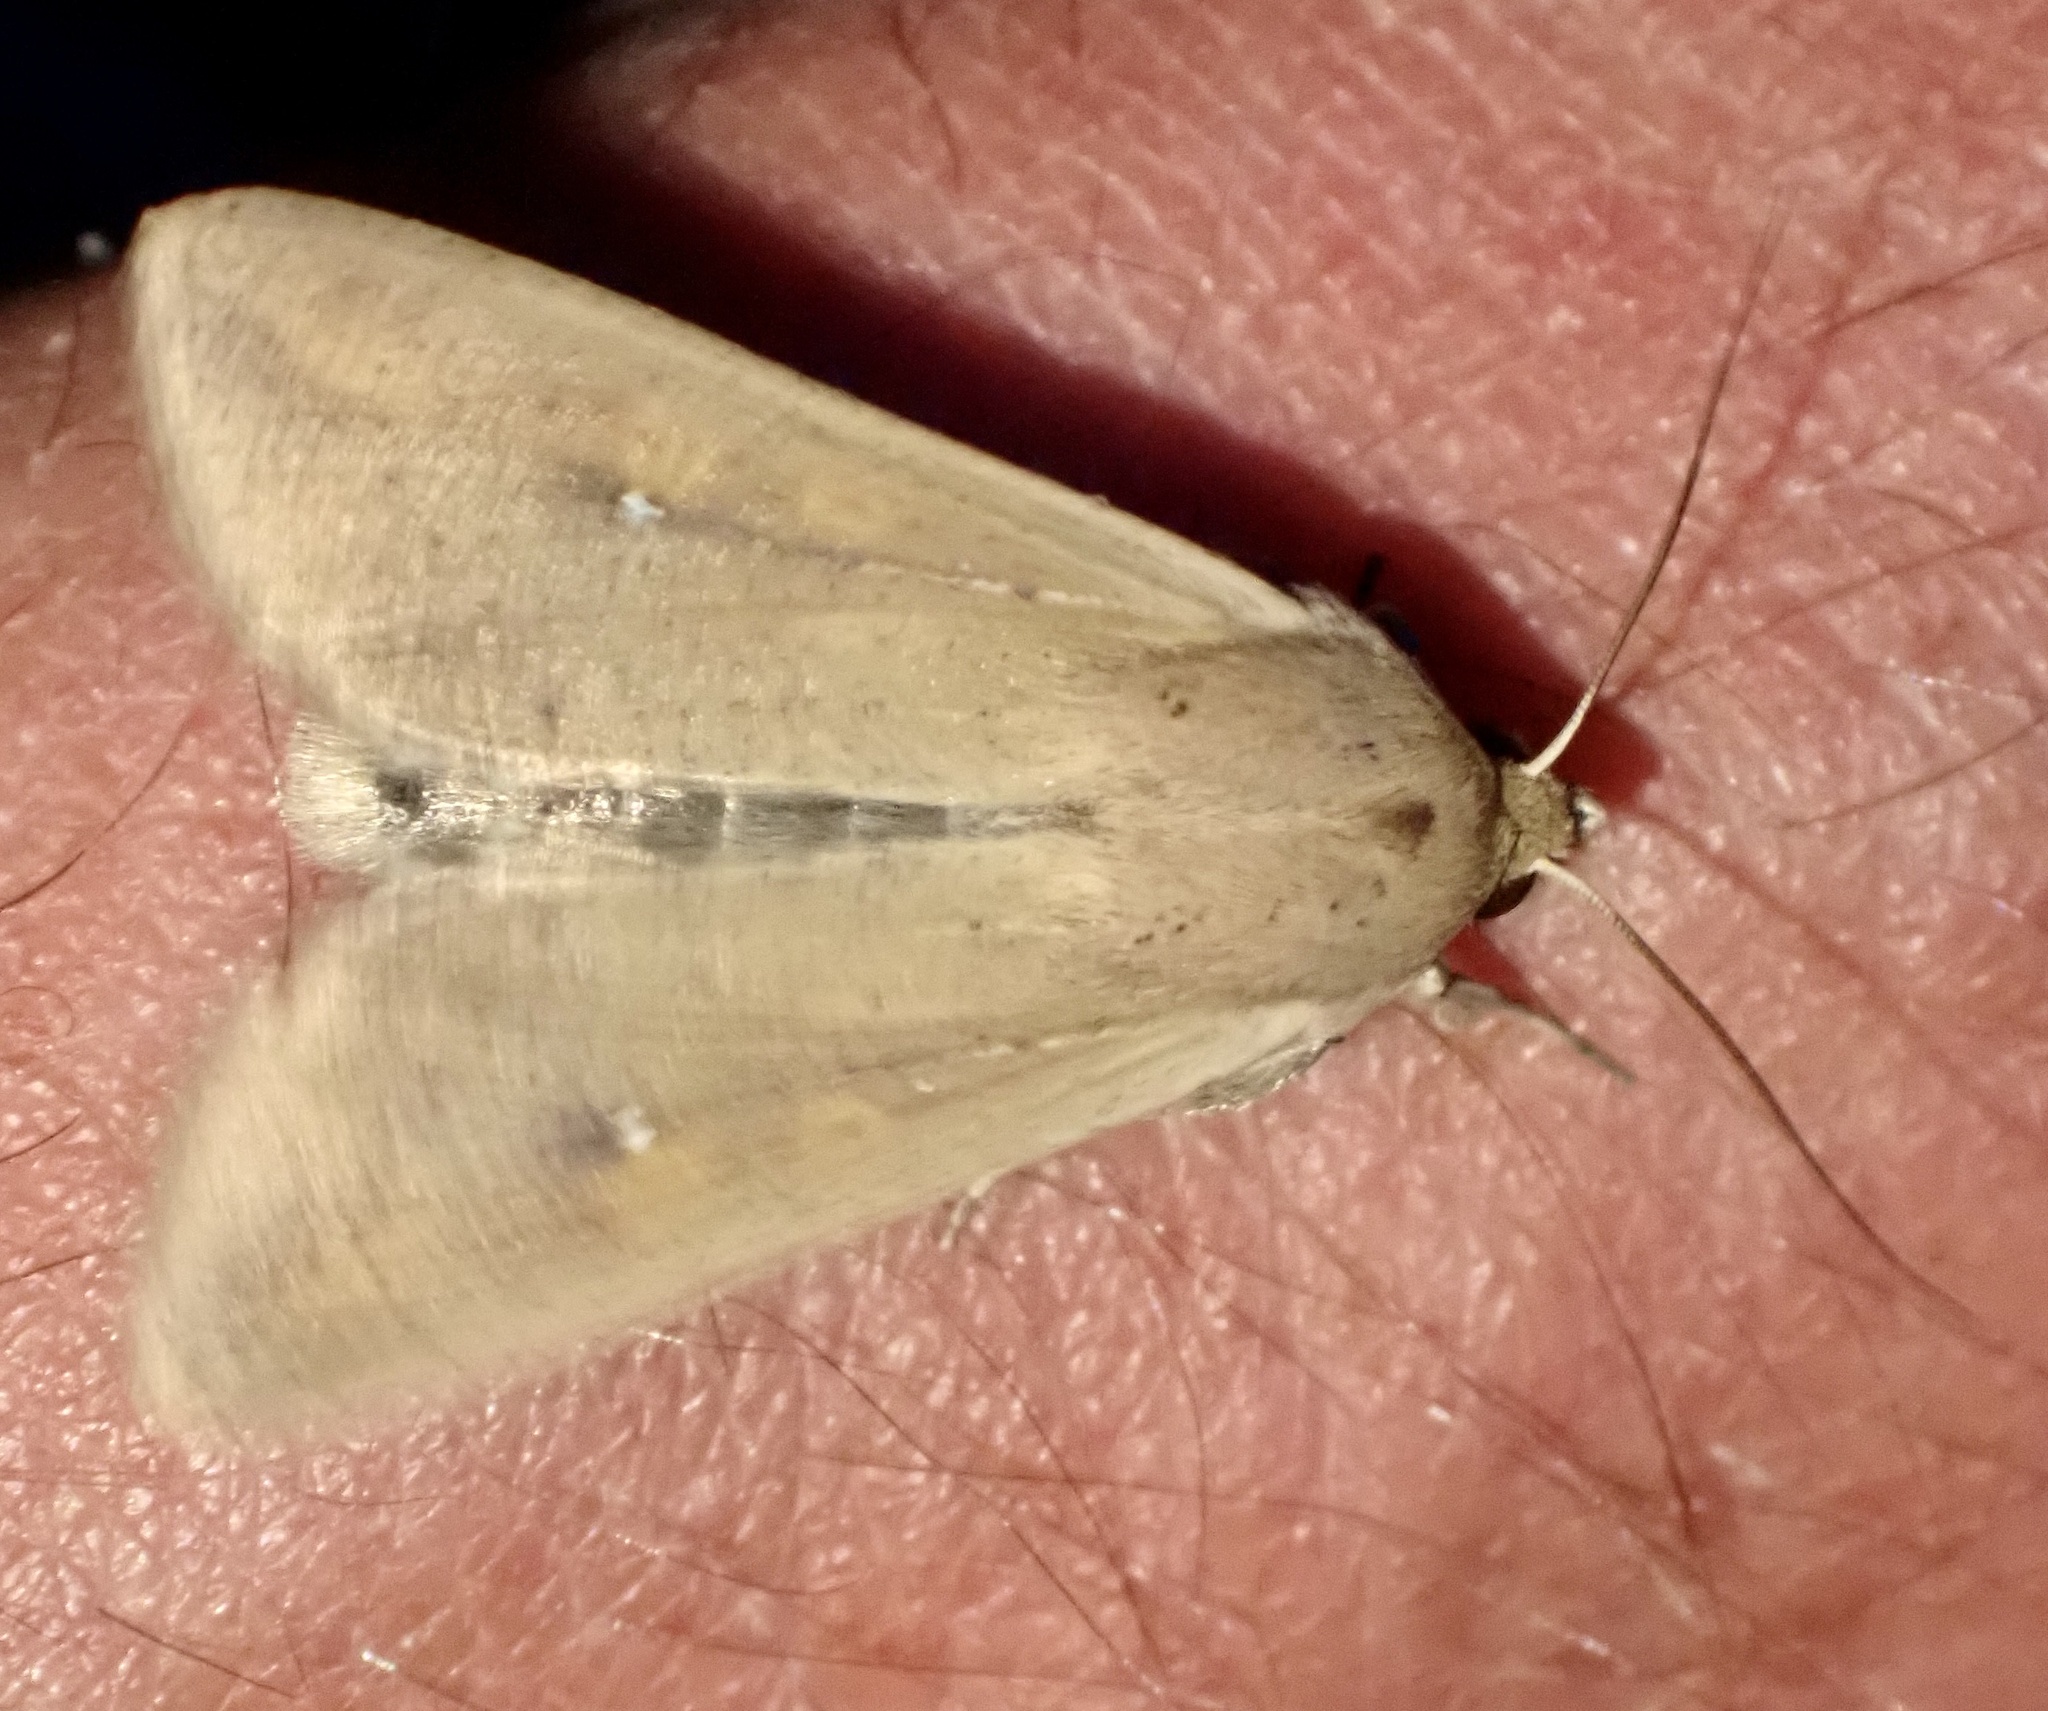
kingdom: Animalia
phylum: Arthropoda
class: Insecta
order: Lepidoptera
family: Noctuidae
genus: Mythimna
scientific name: Mythimna unipuncta
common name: White-speck
